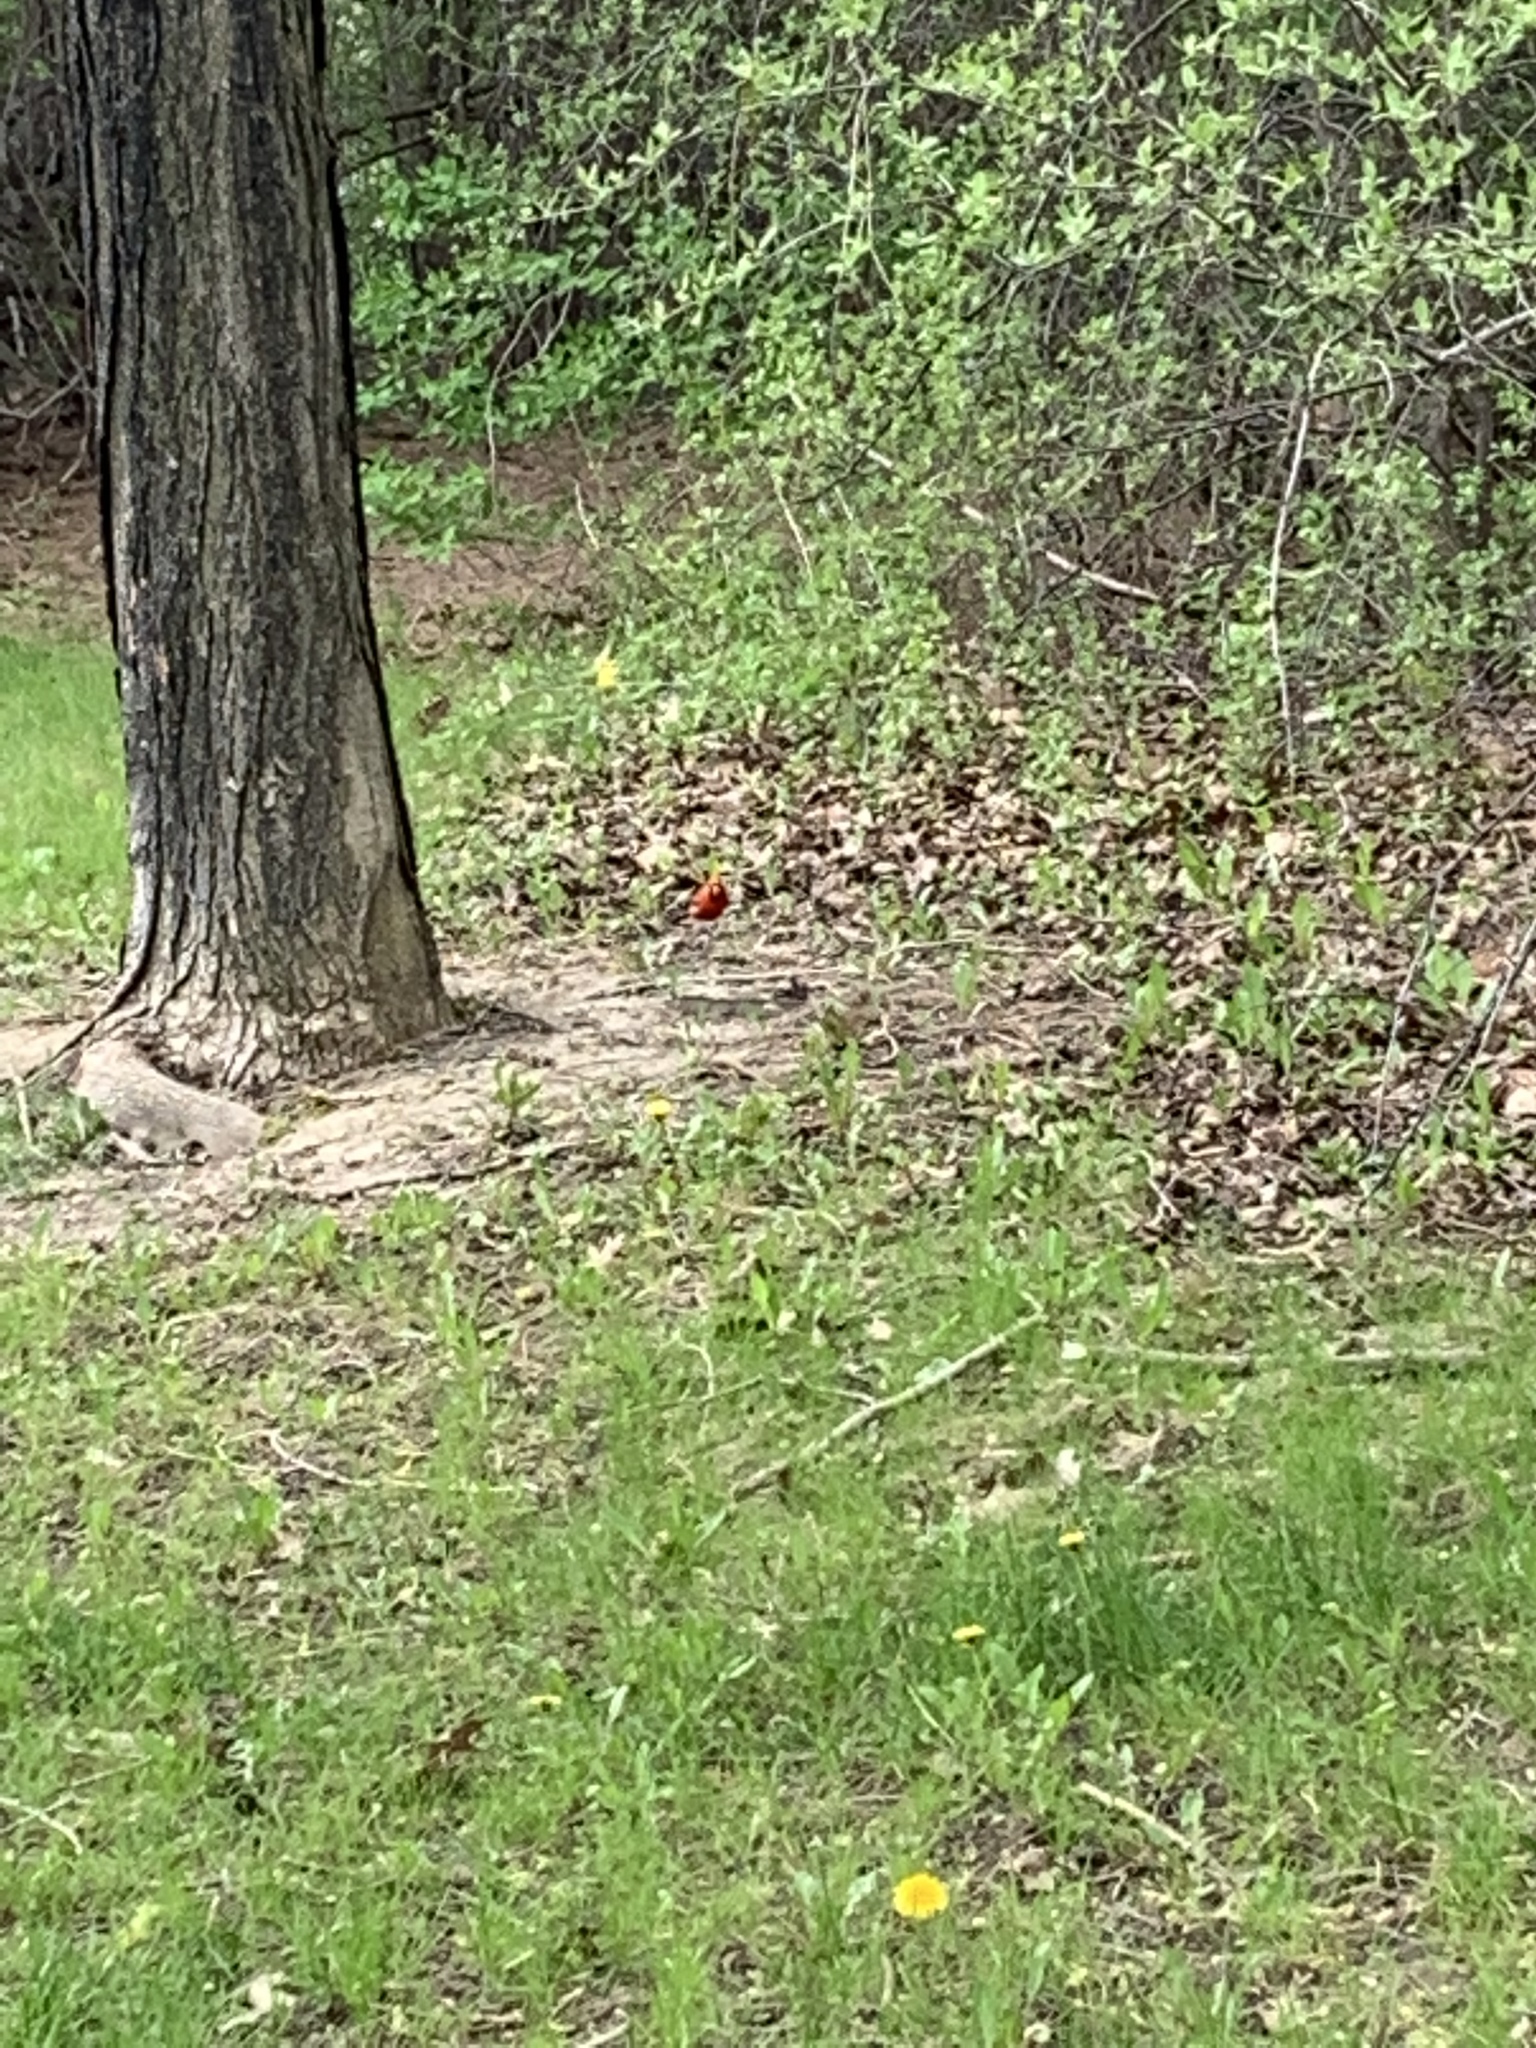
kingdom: Animalia
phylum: Chordata
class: Aves
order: Passeriformes
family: Cardinalidae
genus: Cardinalis
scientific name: Cardinalis cardinalis
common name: Northern cardinal
